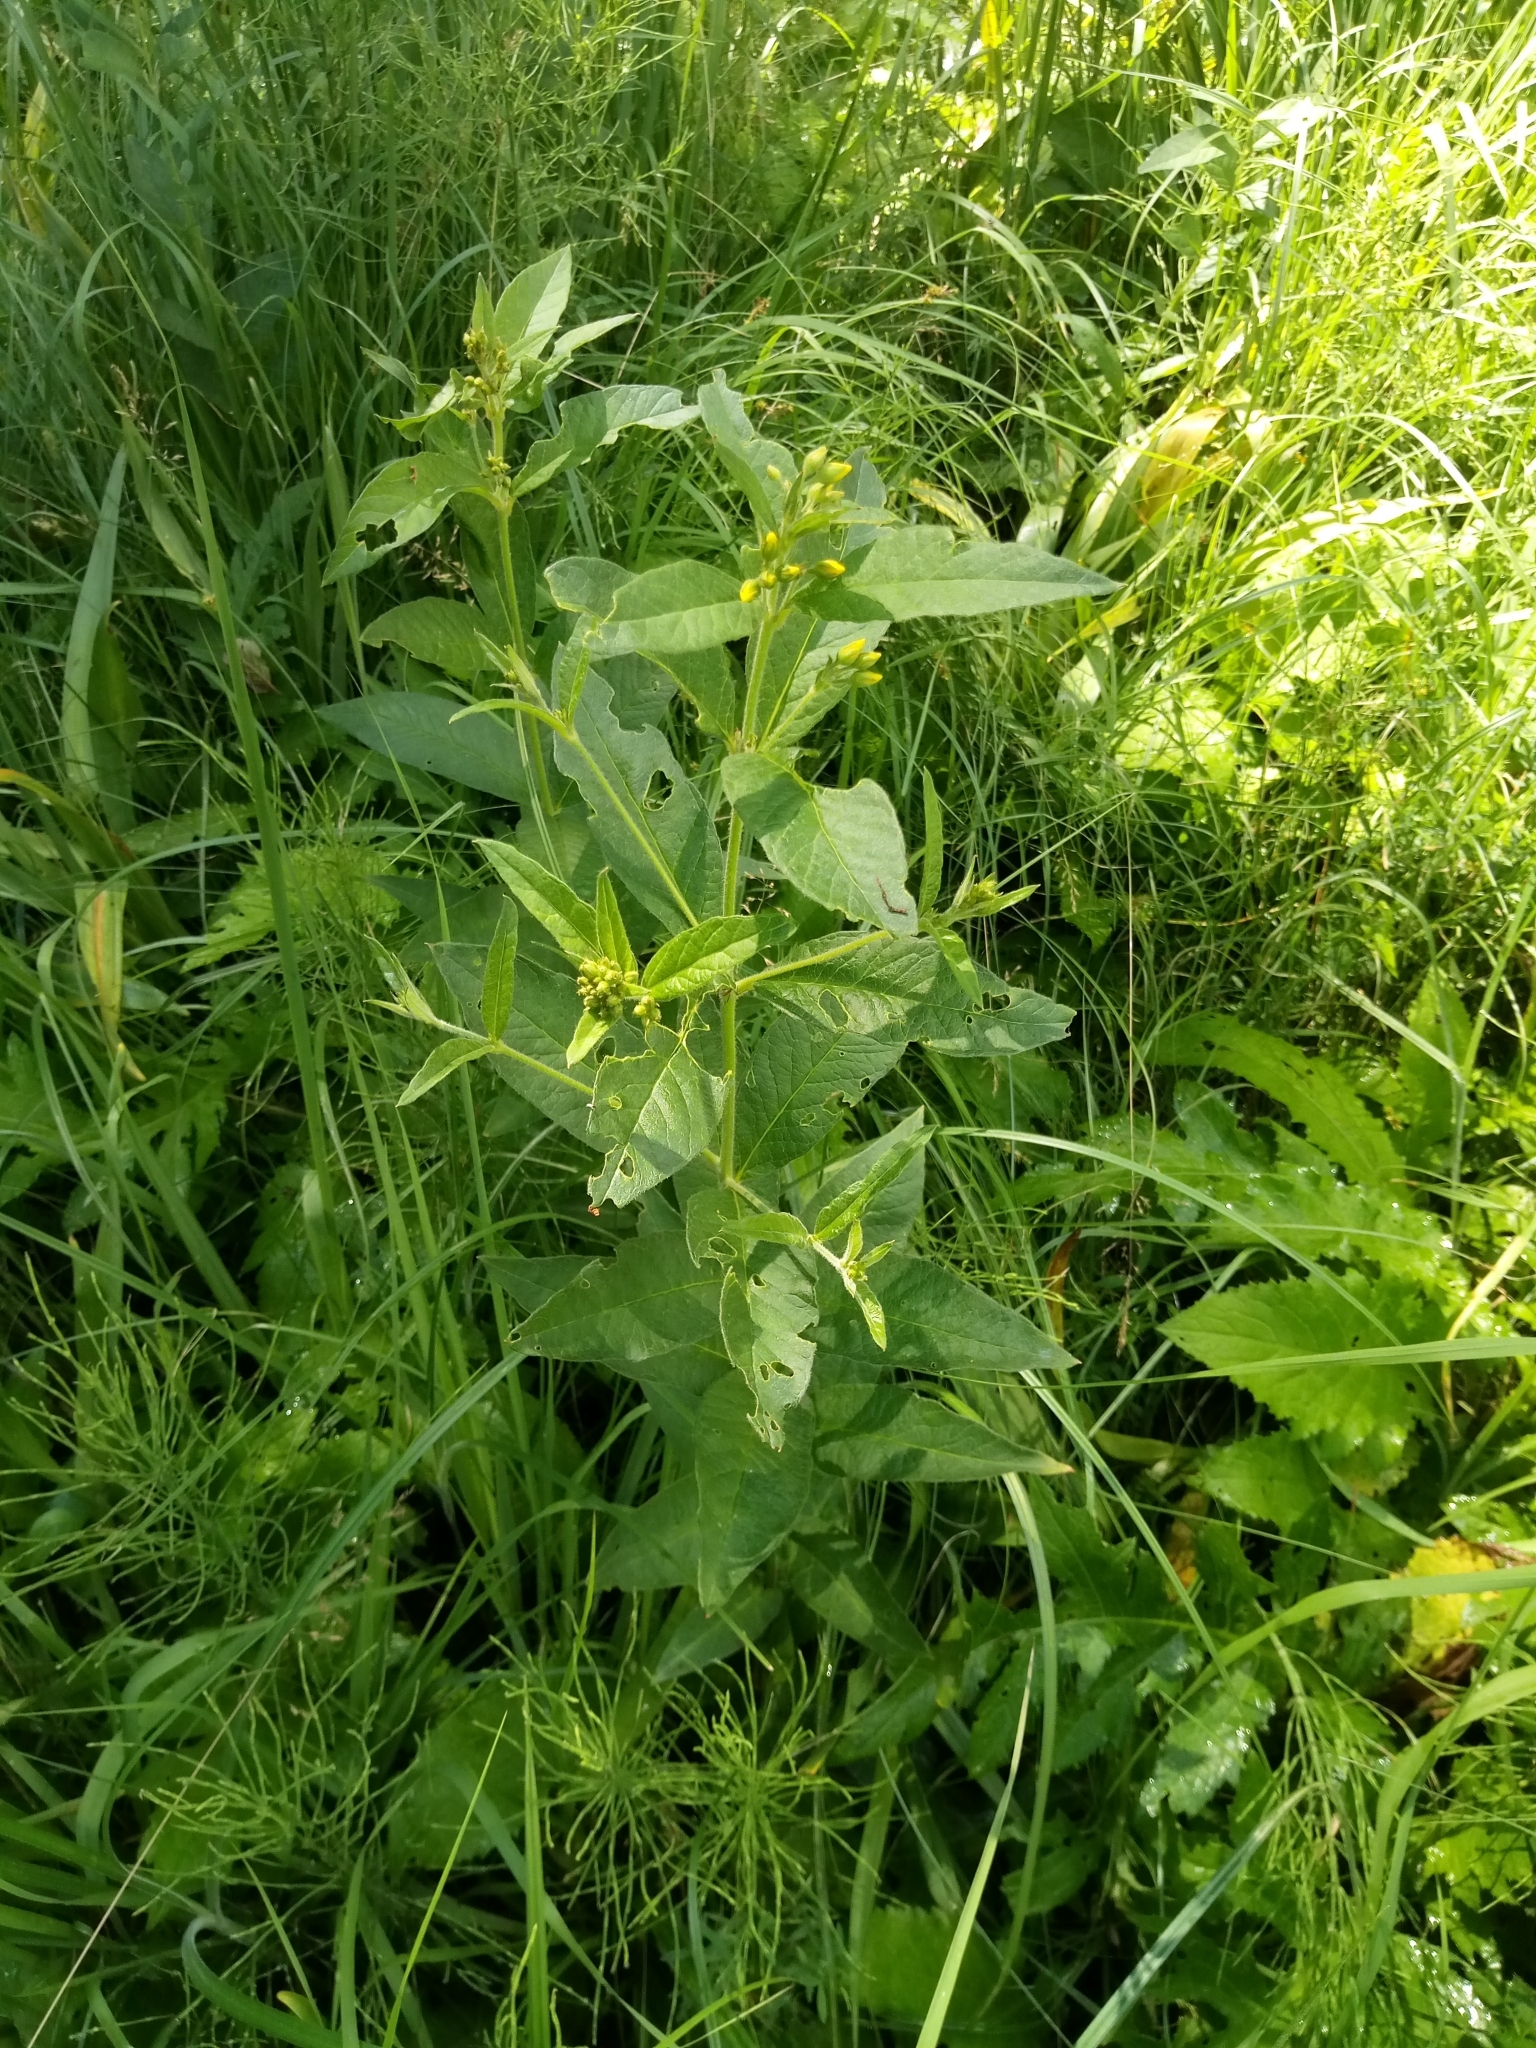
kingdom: Plantae
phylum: Tracheophyta
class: Magnoliopsida
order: Ericales
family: Primulaceae
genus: Lysimachia
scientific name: Lysimachia vulgaris
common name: Yellow loosestrife
